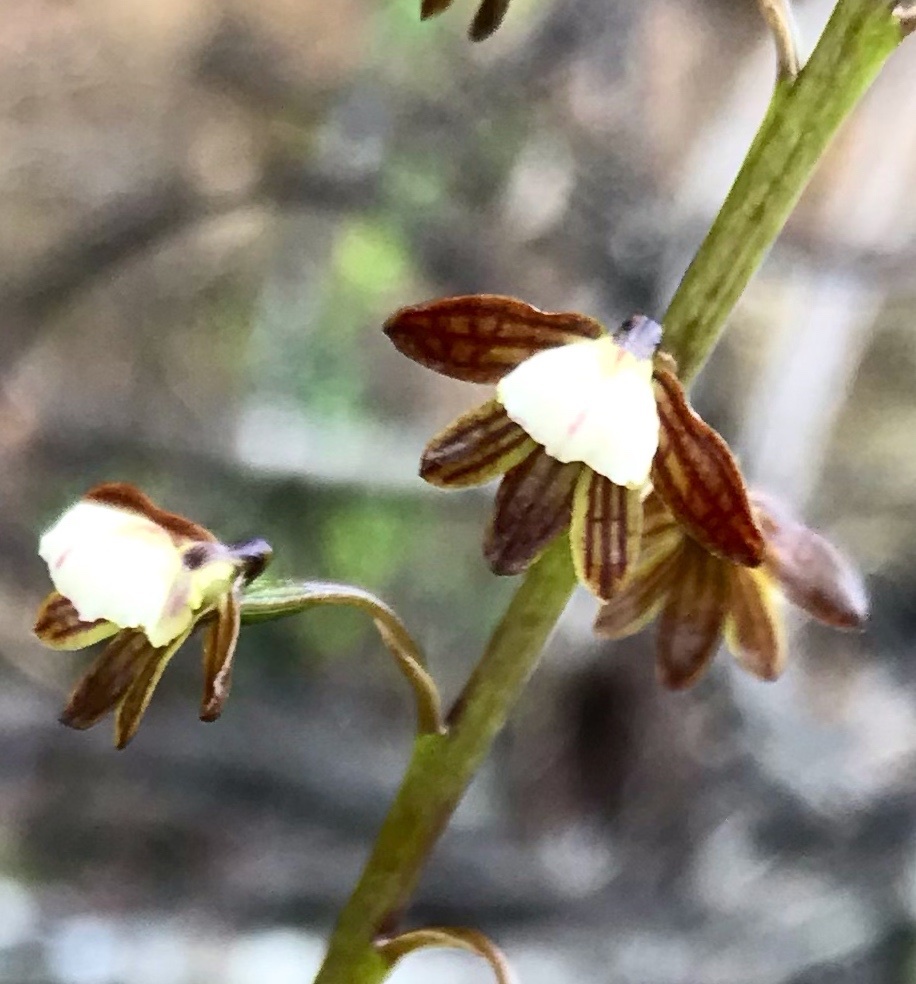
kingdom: Plantae
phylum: Tracheophyta
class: Liliopsida
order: Asparagales
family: Orchidaceae
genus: Eulophia
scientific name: Eulophia cochlearis
